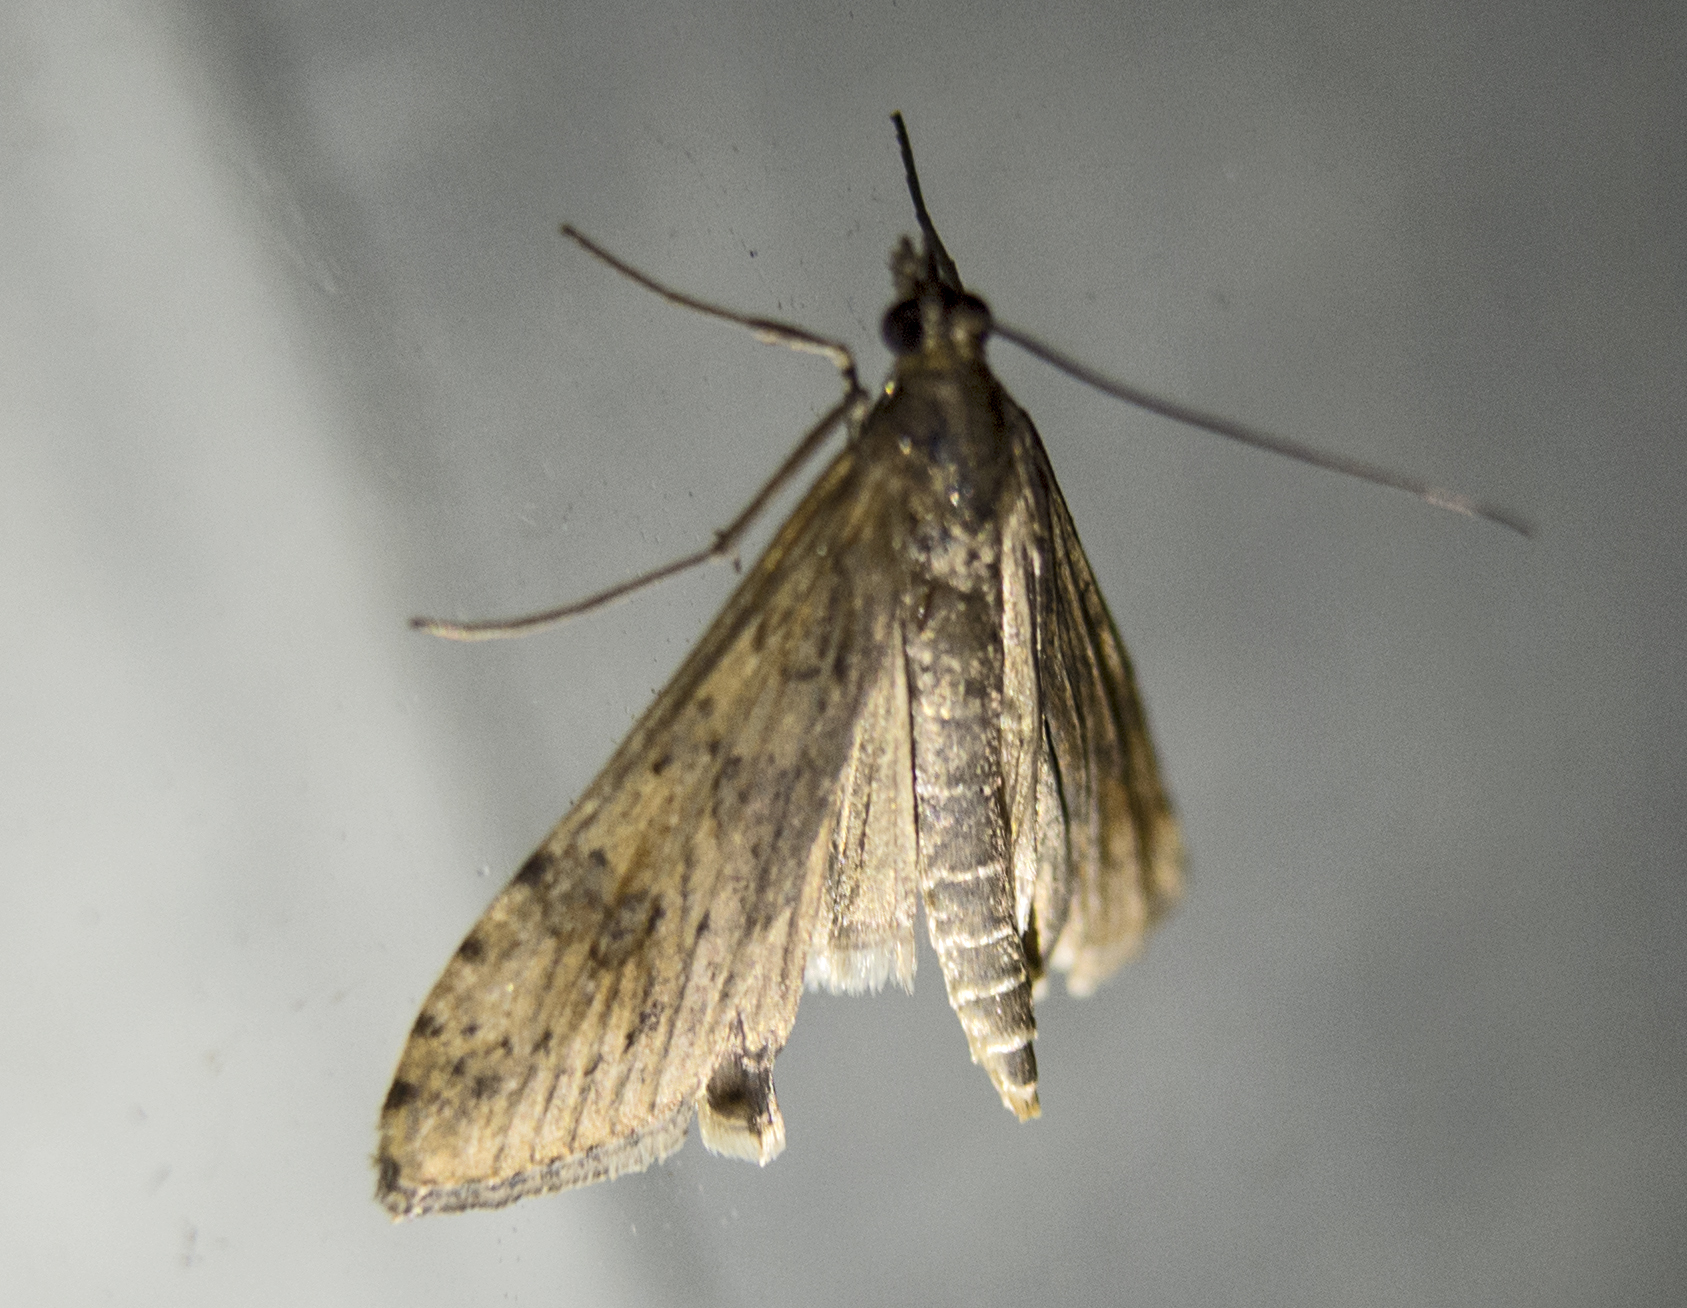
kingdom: Animalia
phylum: Arthropoda
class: Insecta
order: Lepidoptera
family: Crambidae
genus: Nomophila
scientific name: Nomophila noctuella
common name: Rush veneer
